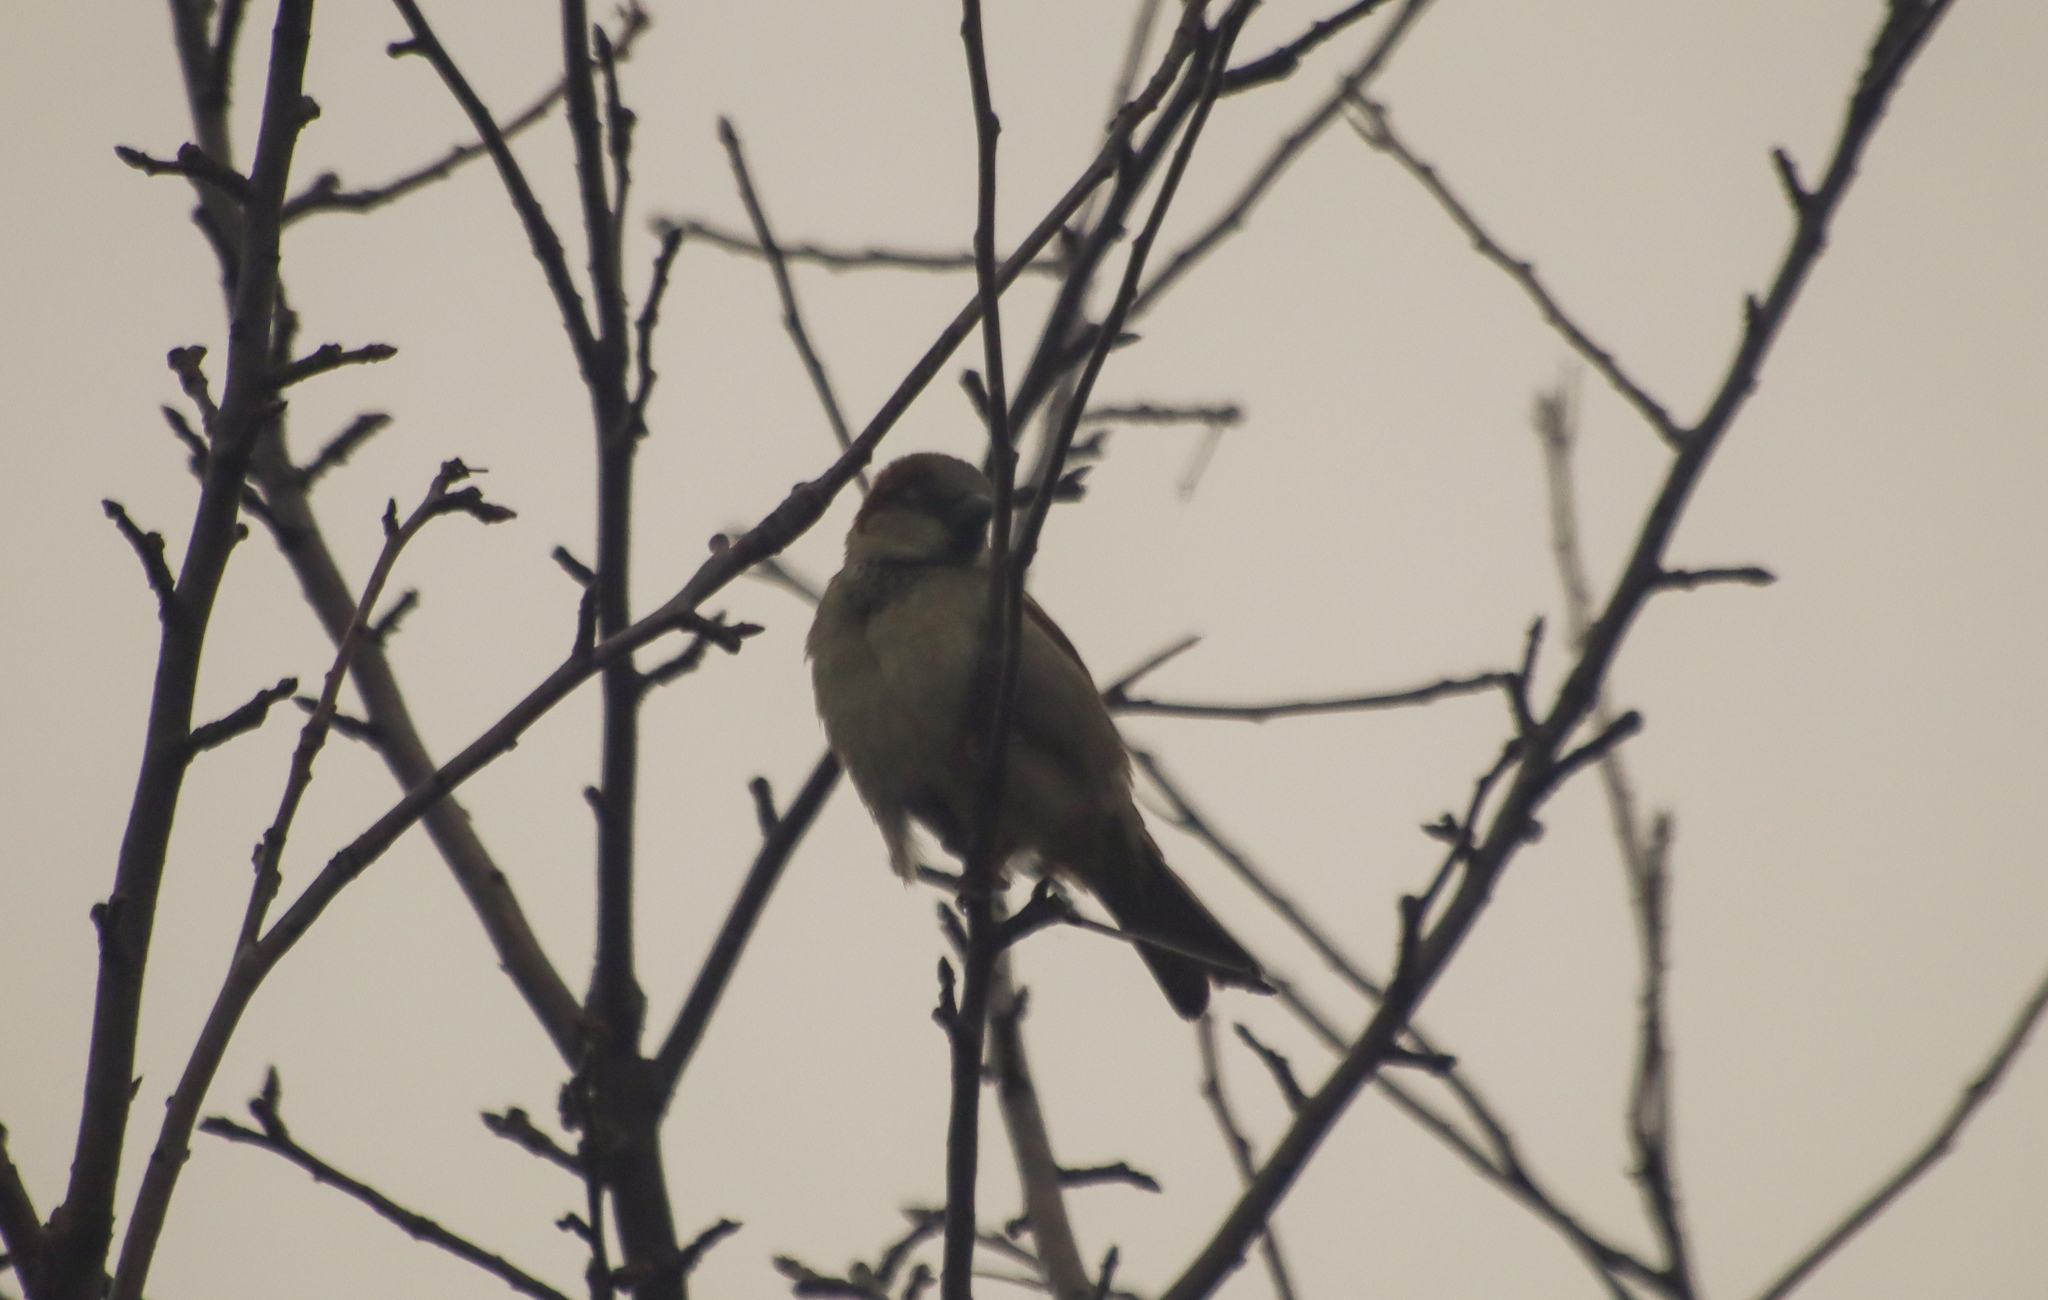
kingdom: Animalia
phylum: Chordata
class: Aves
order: Passeriformes
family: Passeridae
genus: Passer
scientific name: Passer domesticus
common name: House sparrow
